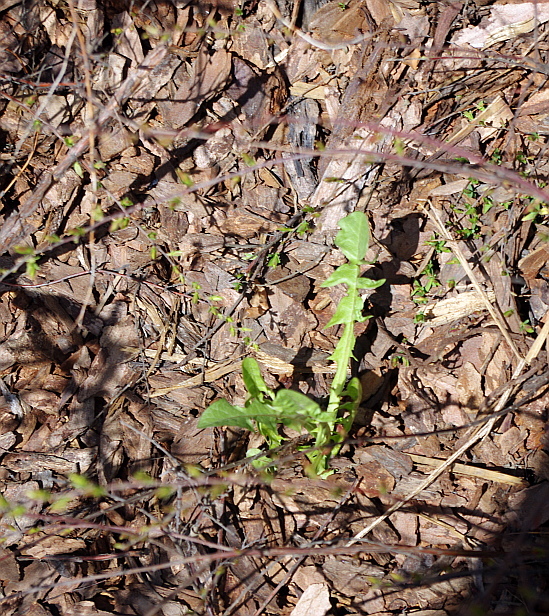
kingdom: Plantae
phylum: Tracheophyta
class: Magnoliopsida
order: Asterales
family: Asteraceae
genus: Taraxacum
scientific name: Taraxacum officinale
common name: Common dandelion
